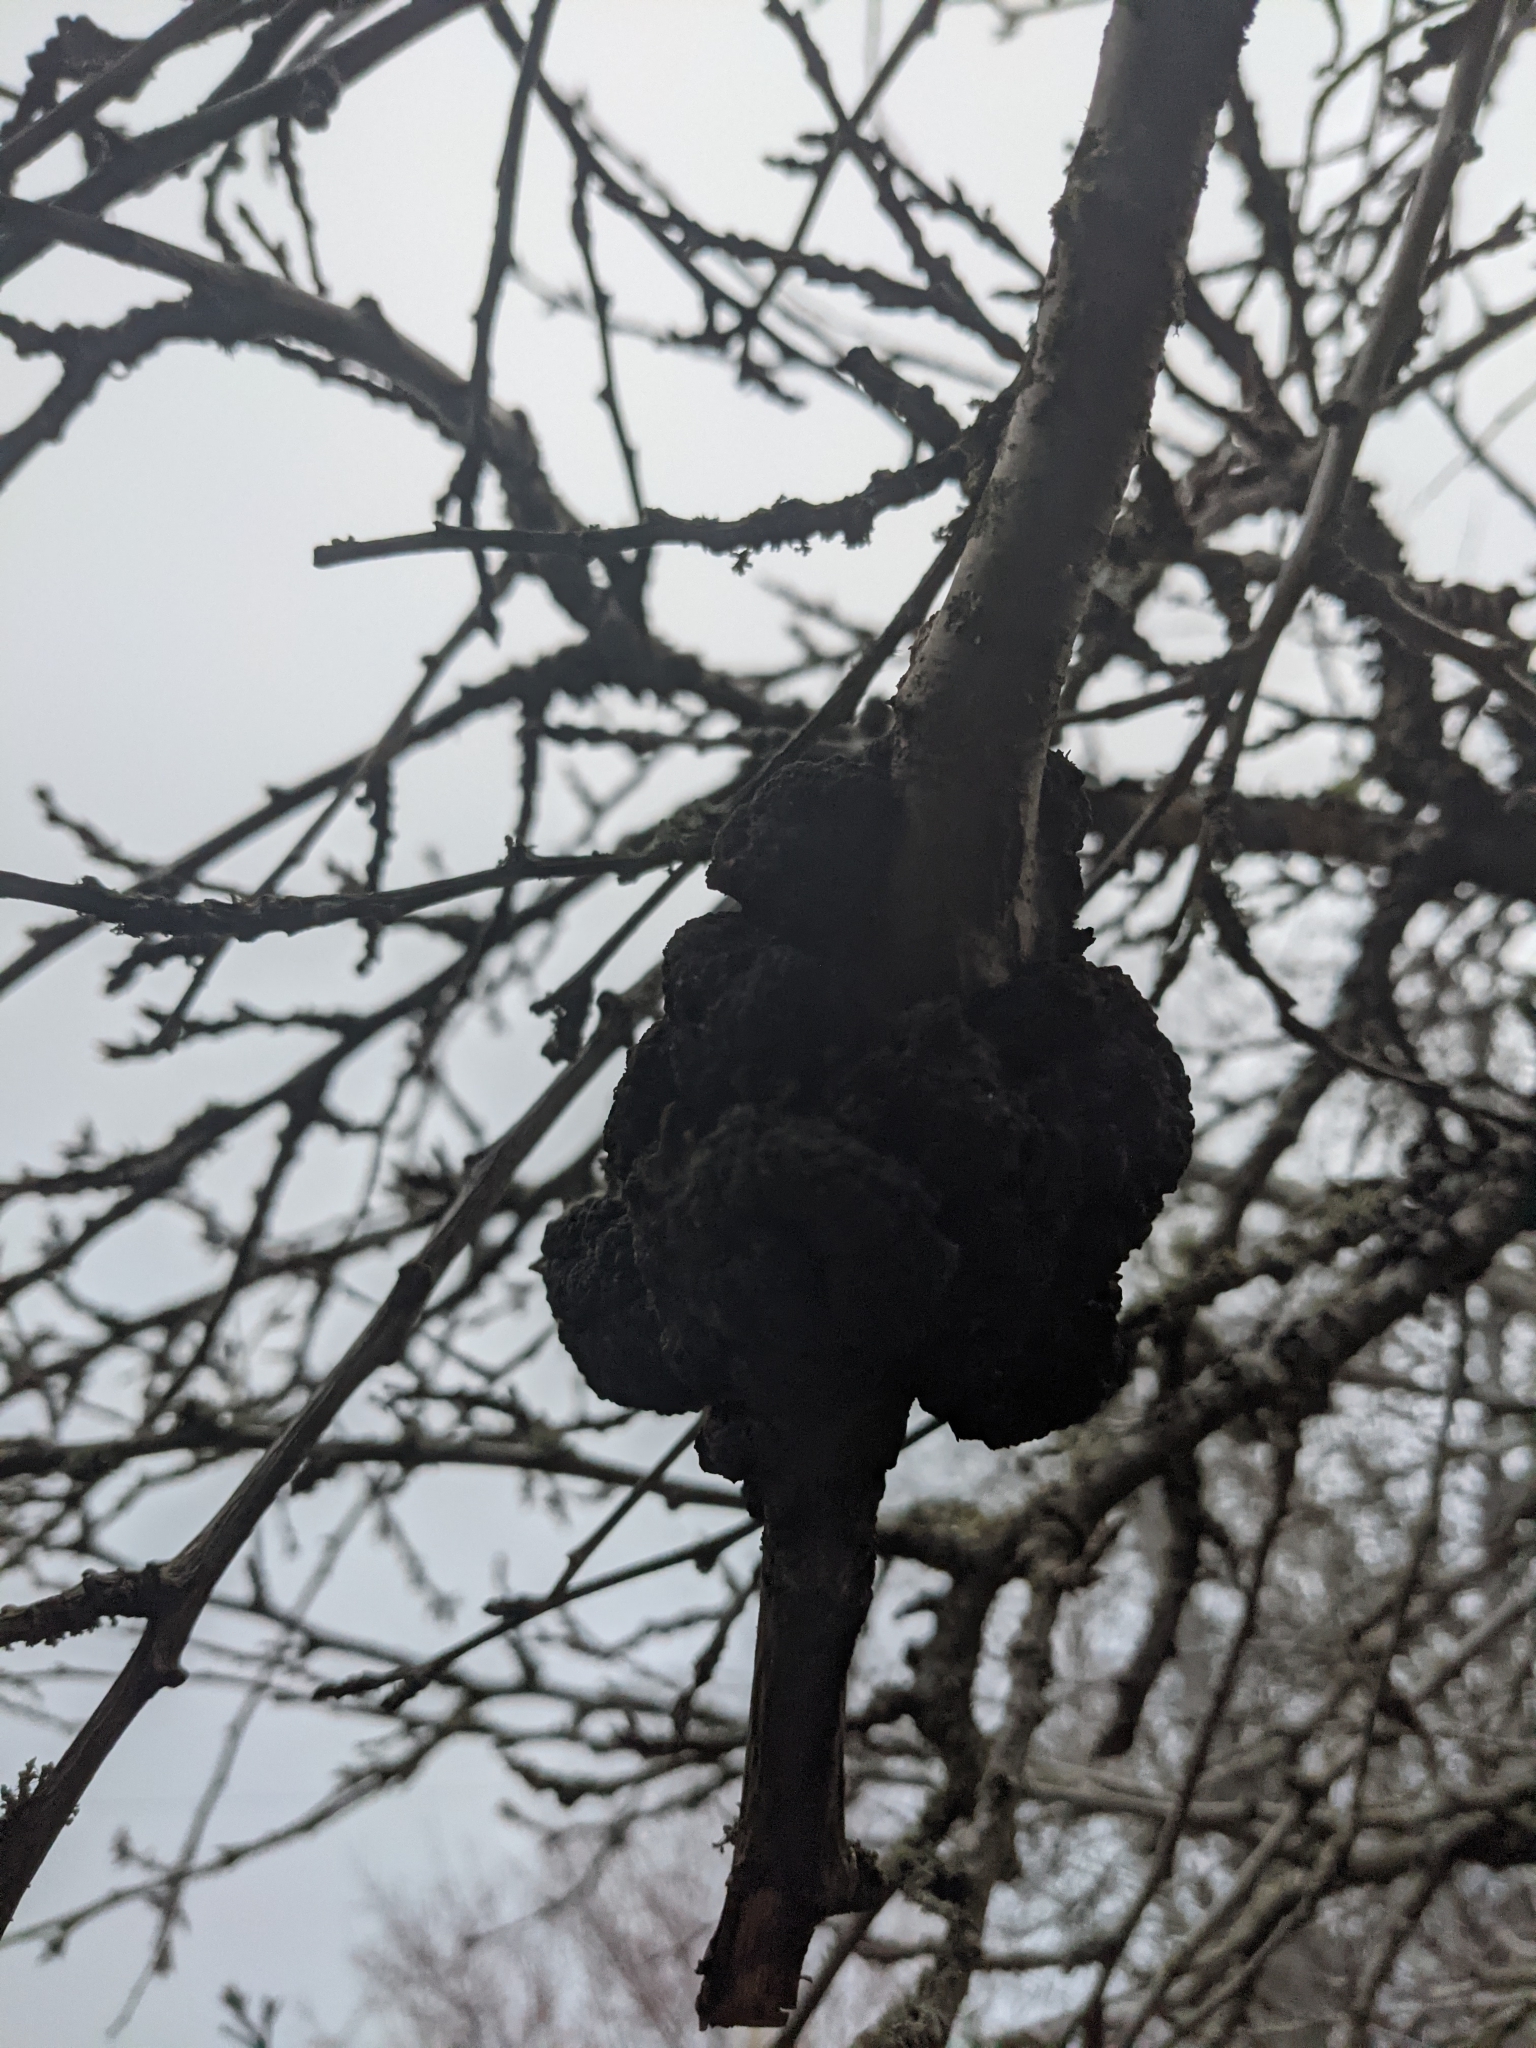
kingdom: Fungi
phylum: Ascomycota
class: Dothideomycetes
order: Venturiales
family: Venturiaceae
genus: Apiosporina
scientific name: Apiosporina morbosa
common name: Black knot
